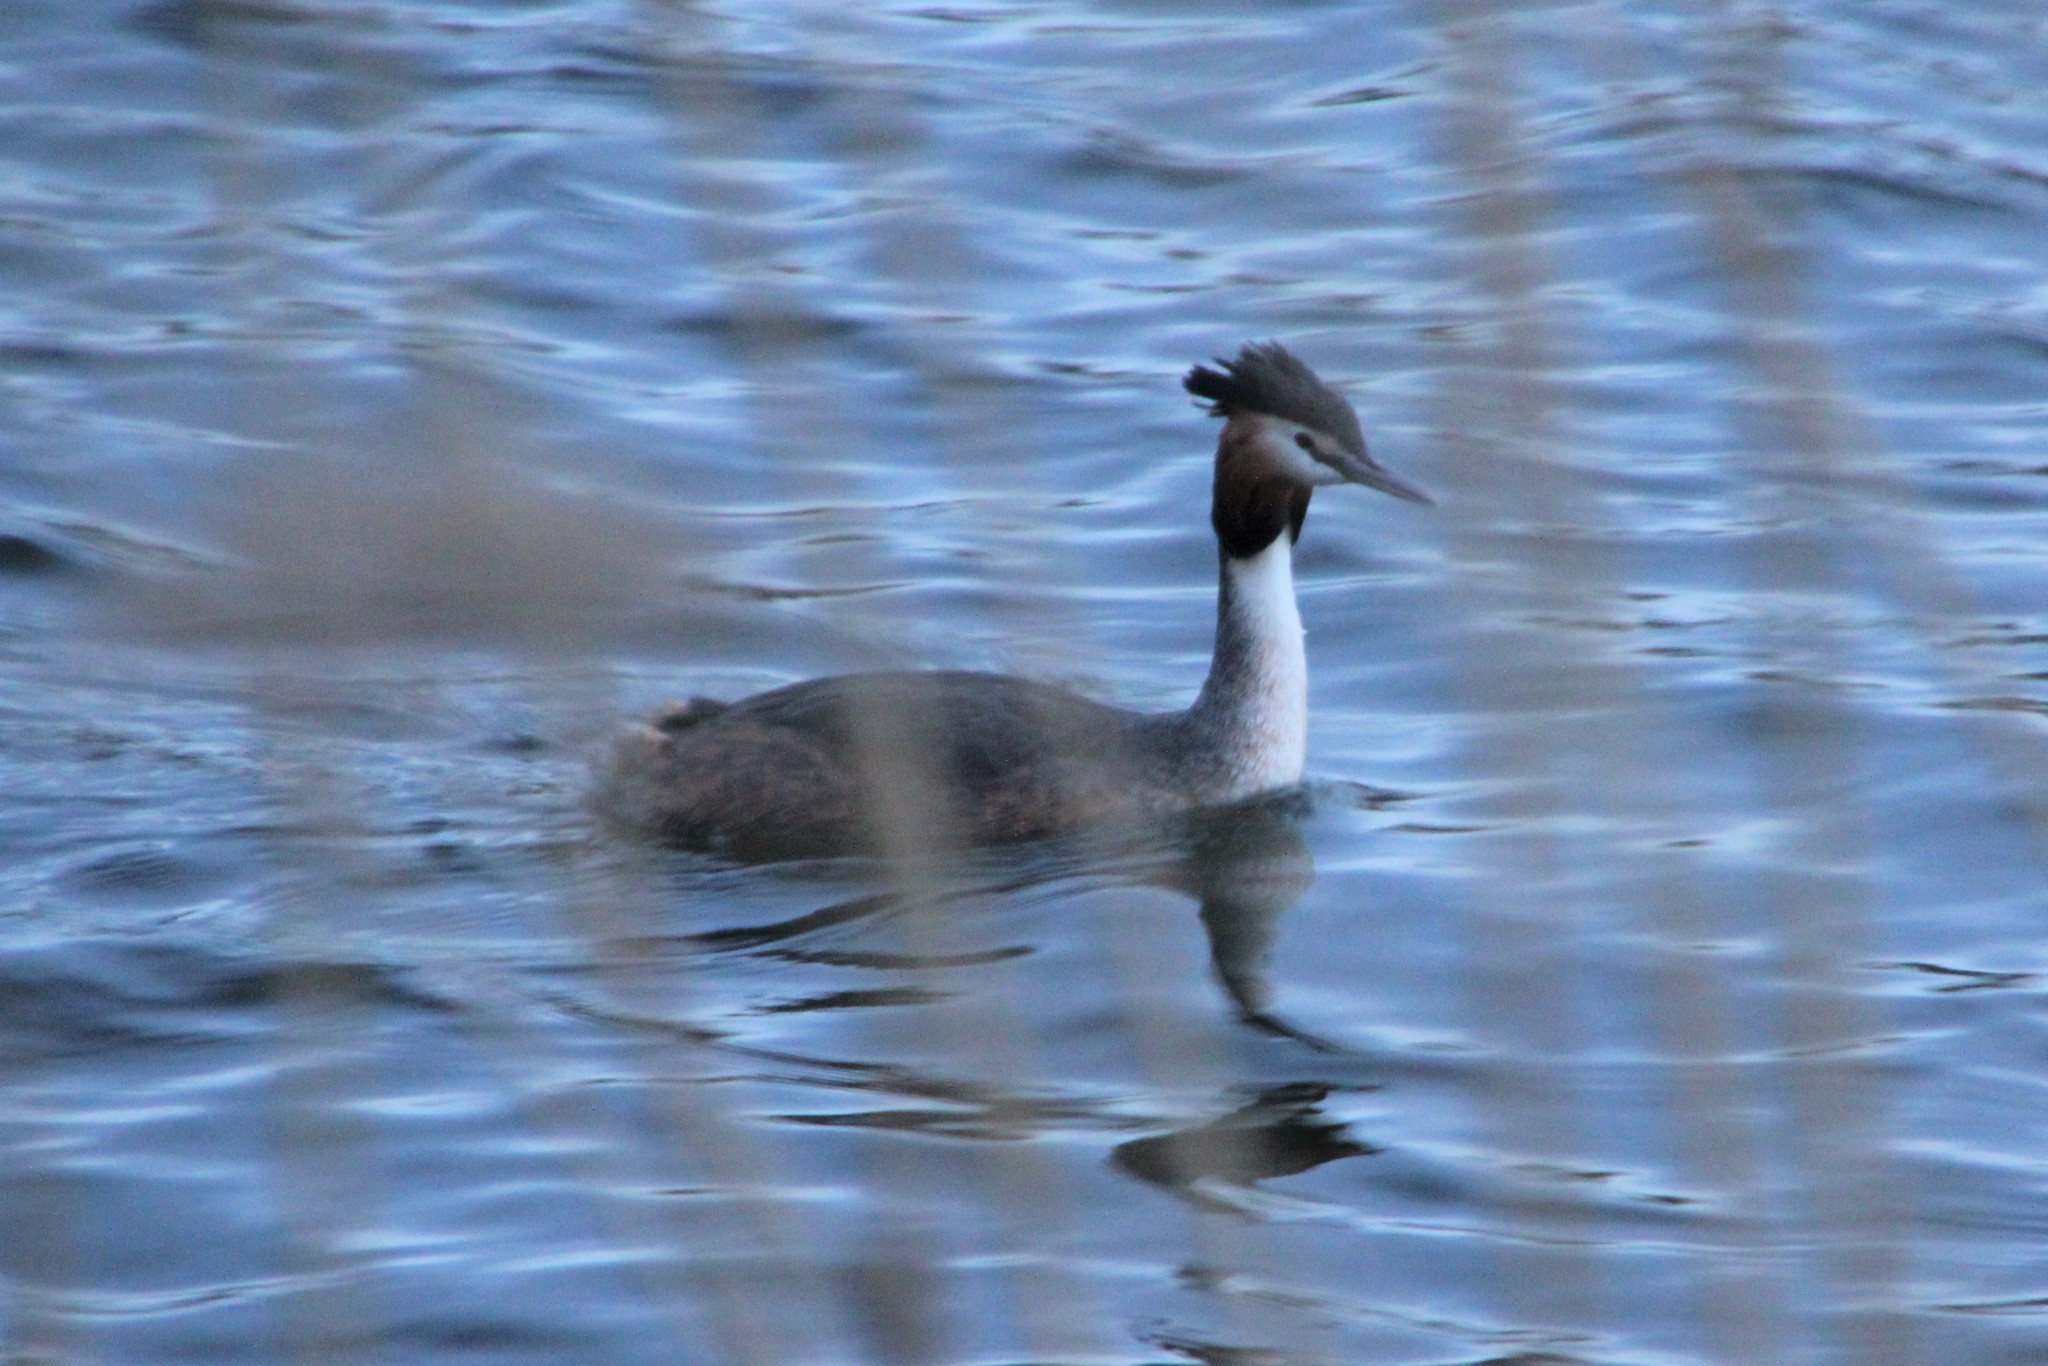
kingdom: Animalia
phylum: Chordata
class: Aves
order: Podicipediformes
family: Podicipedidae
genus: Podiceps
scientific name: Podiceps cristatus
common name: Great crested grebe
